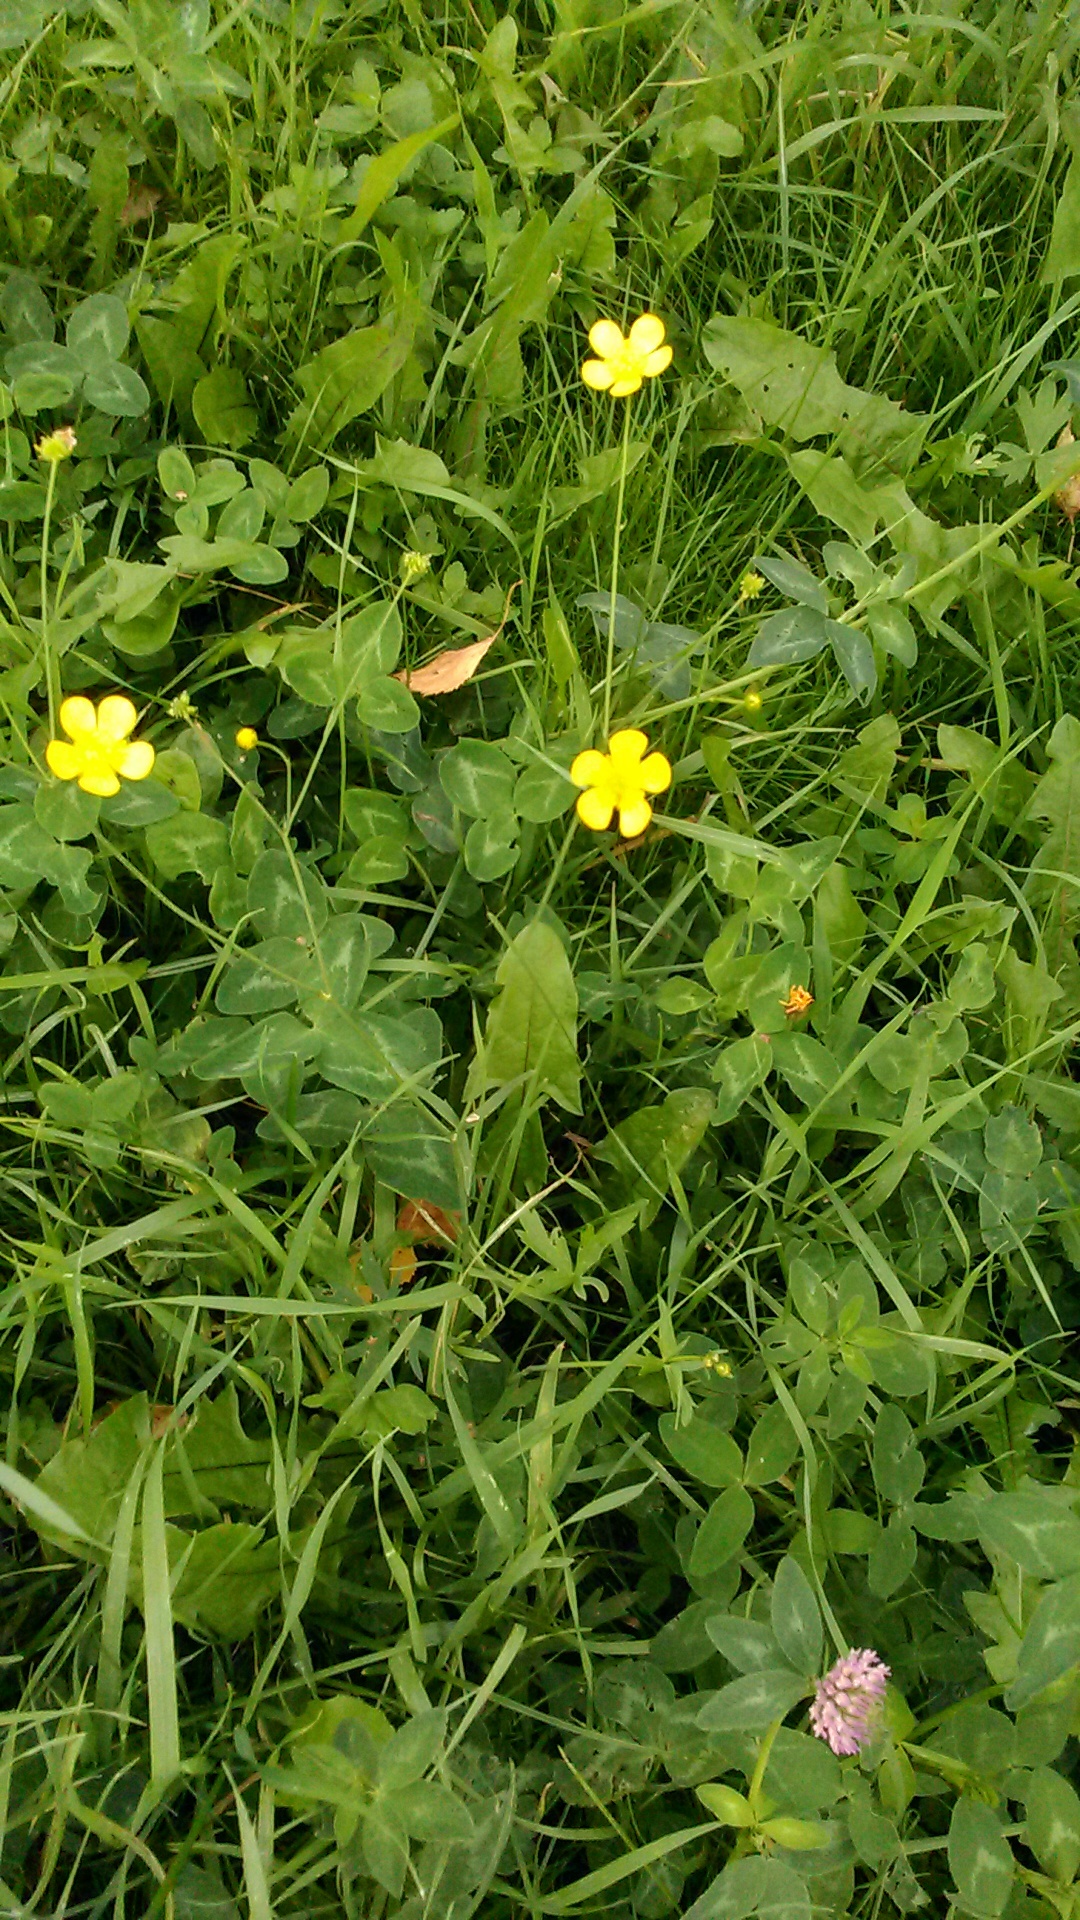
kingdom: Plantae
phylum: Tracheophyta
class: Magnoliopsida
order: Ranunculales
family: Ranunculaceae
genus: Ranunculus
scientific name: Ranunculus acris
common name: Meadow buttercup
